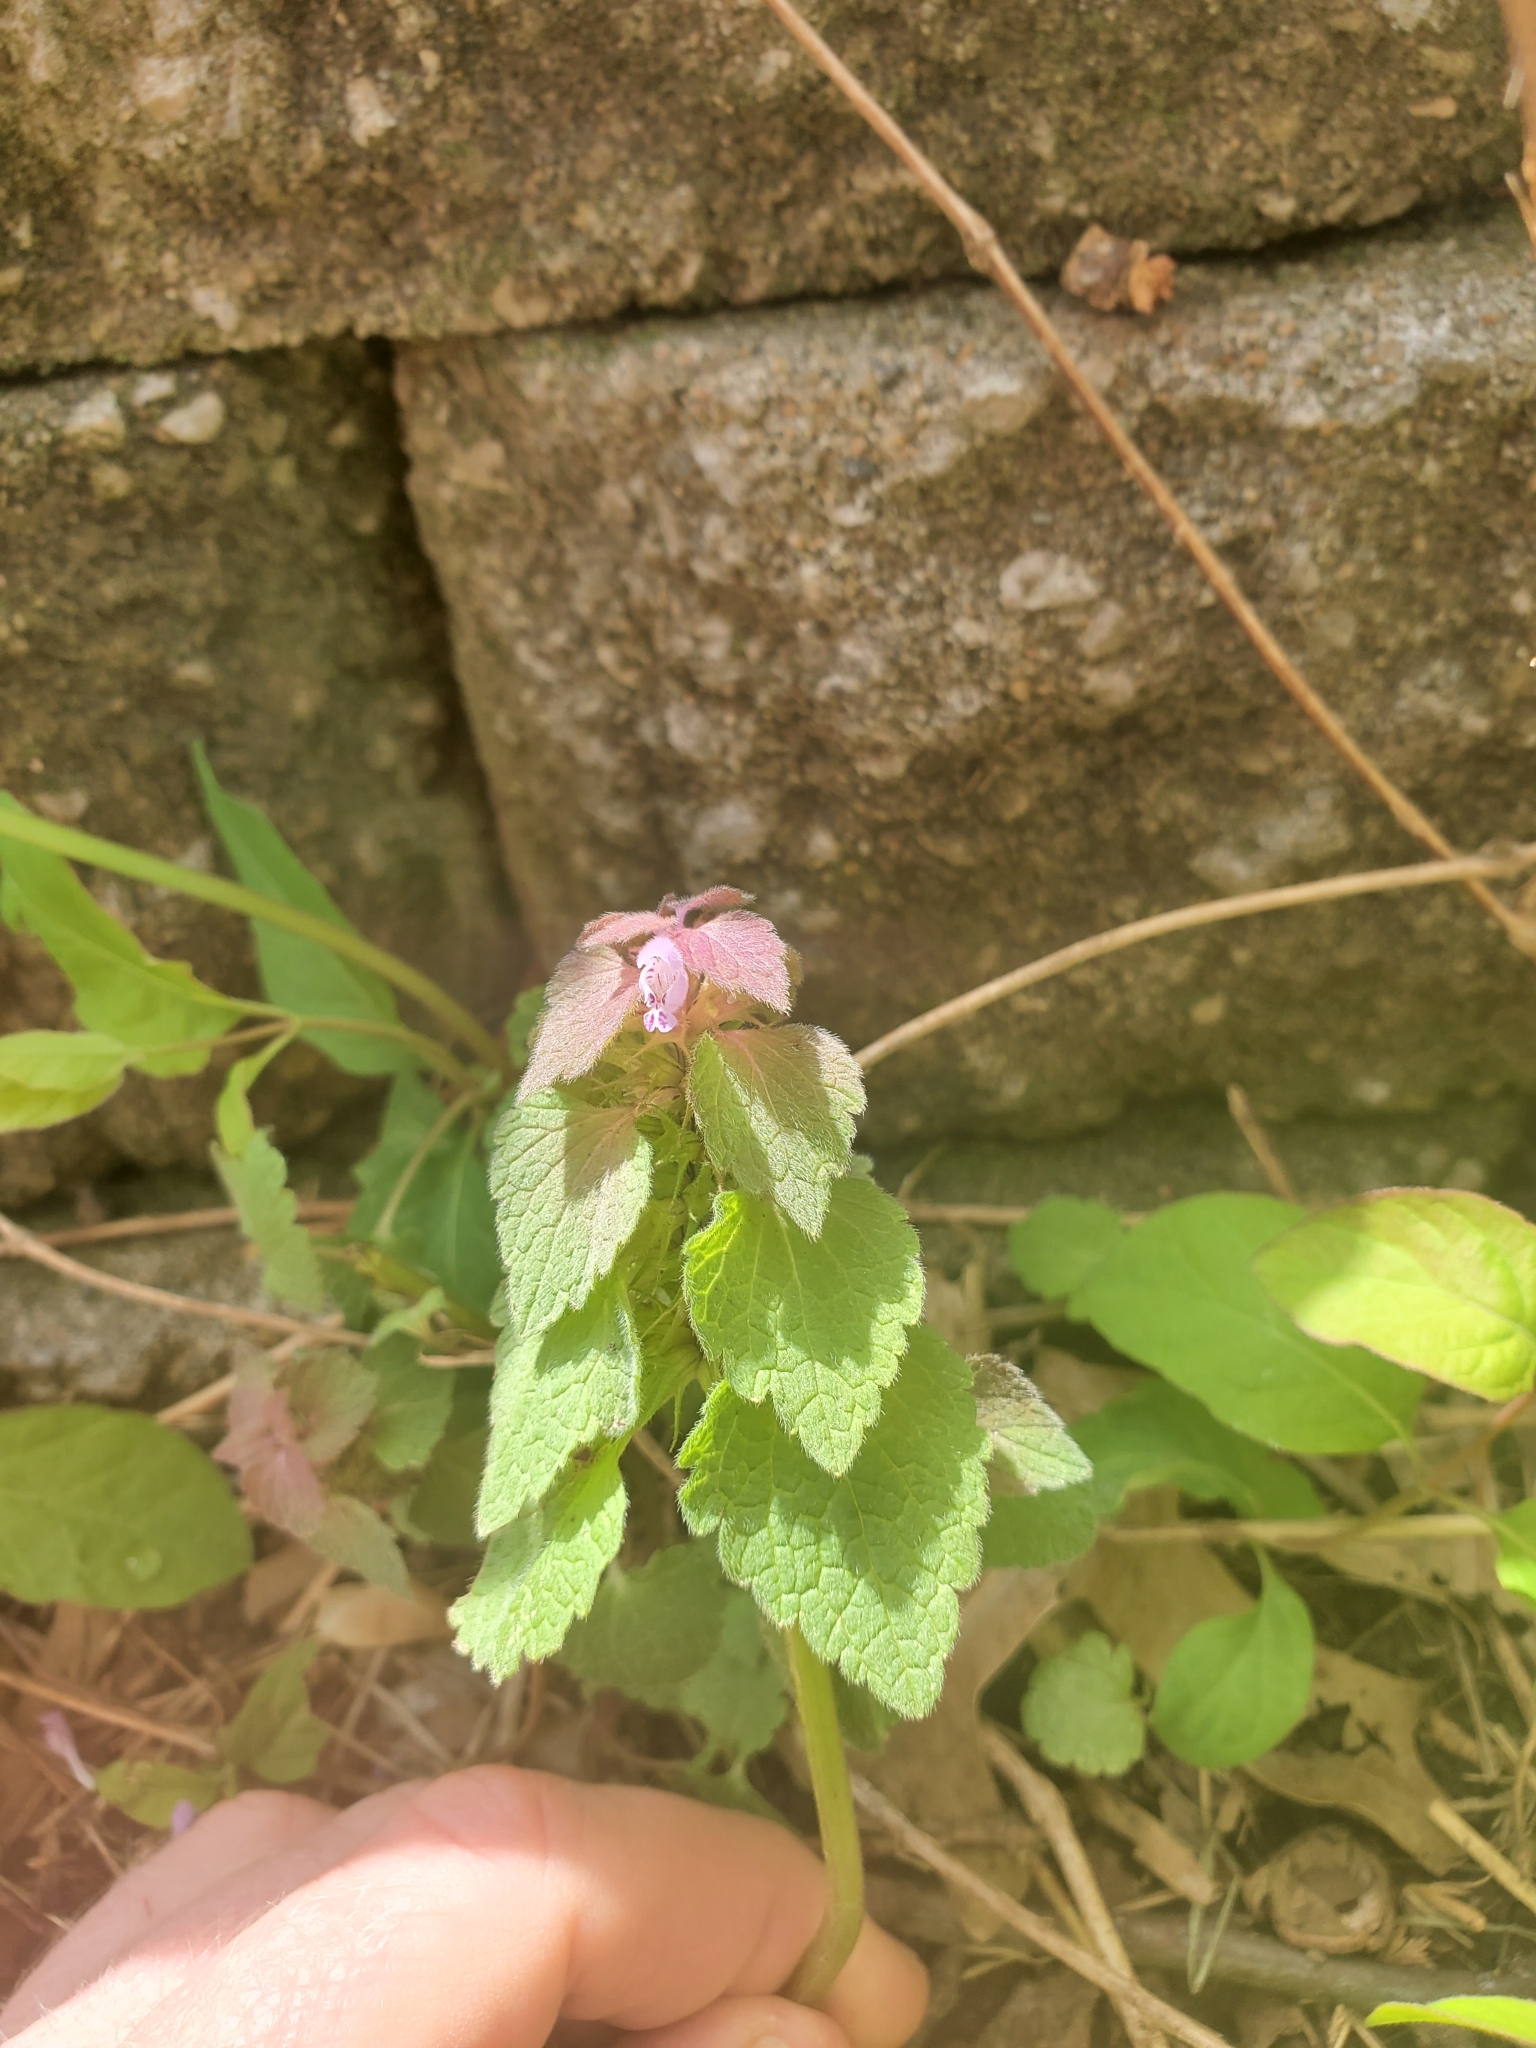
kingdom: Plantae
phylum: Tracheophyta
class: Magnoliopsida
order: Lamiales
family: Lamiaceae
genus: Lamium
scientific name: Lamium purpureum
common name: Red dead-nettle
